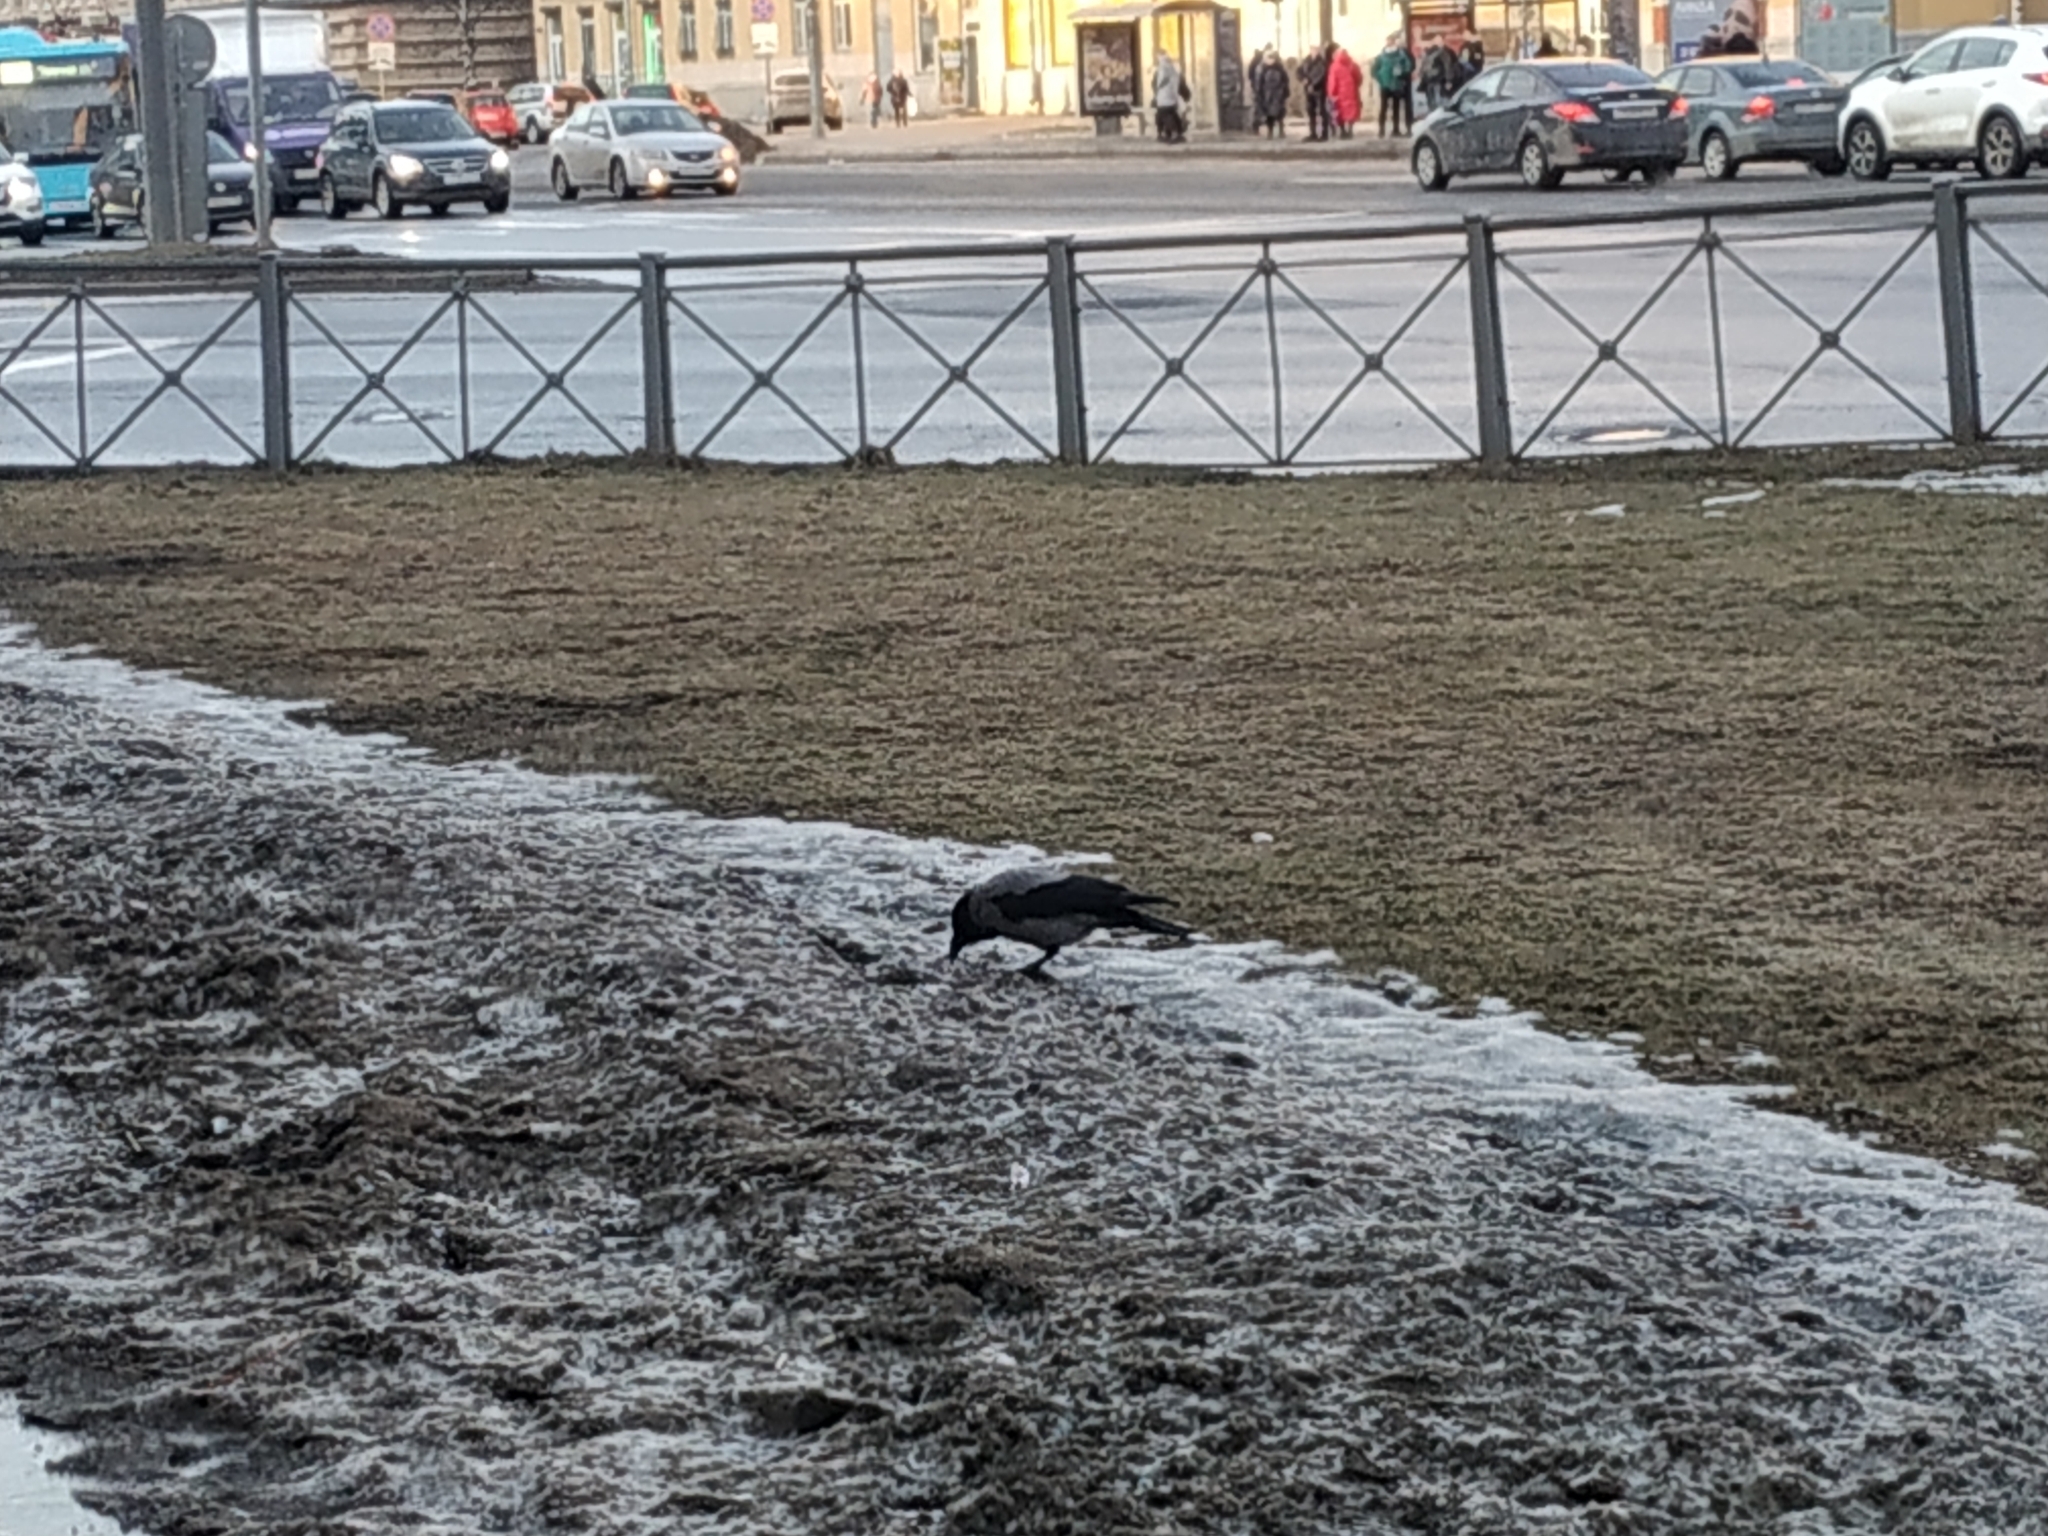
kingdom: Animalia
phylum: Chordata
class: Aves
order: Passeriformes
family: Corvidae
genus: Corvus
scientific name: Corvus cornix
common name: Hooded crow
